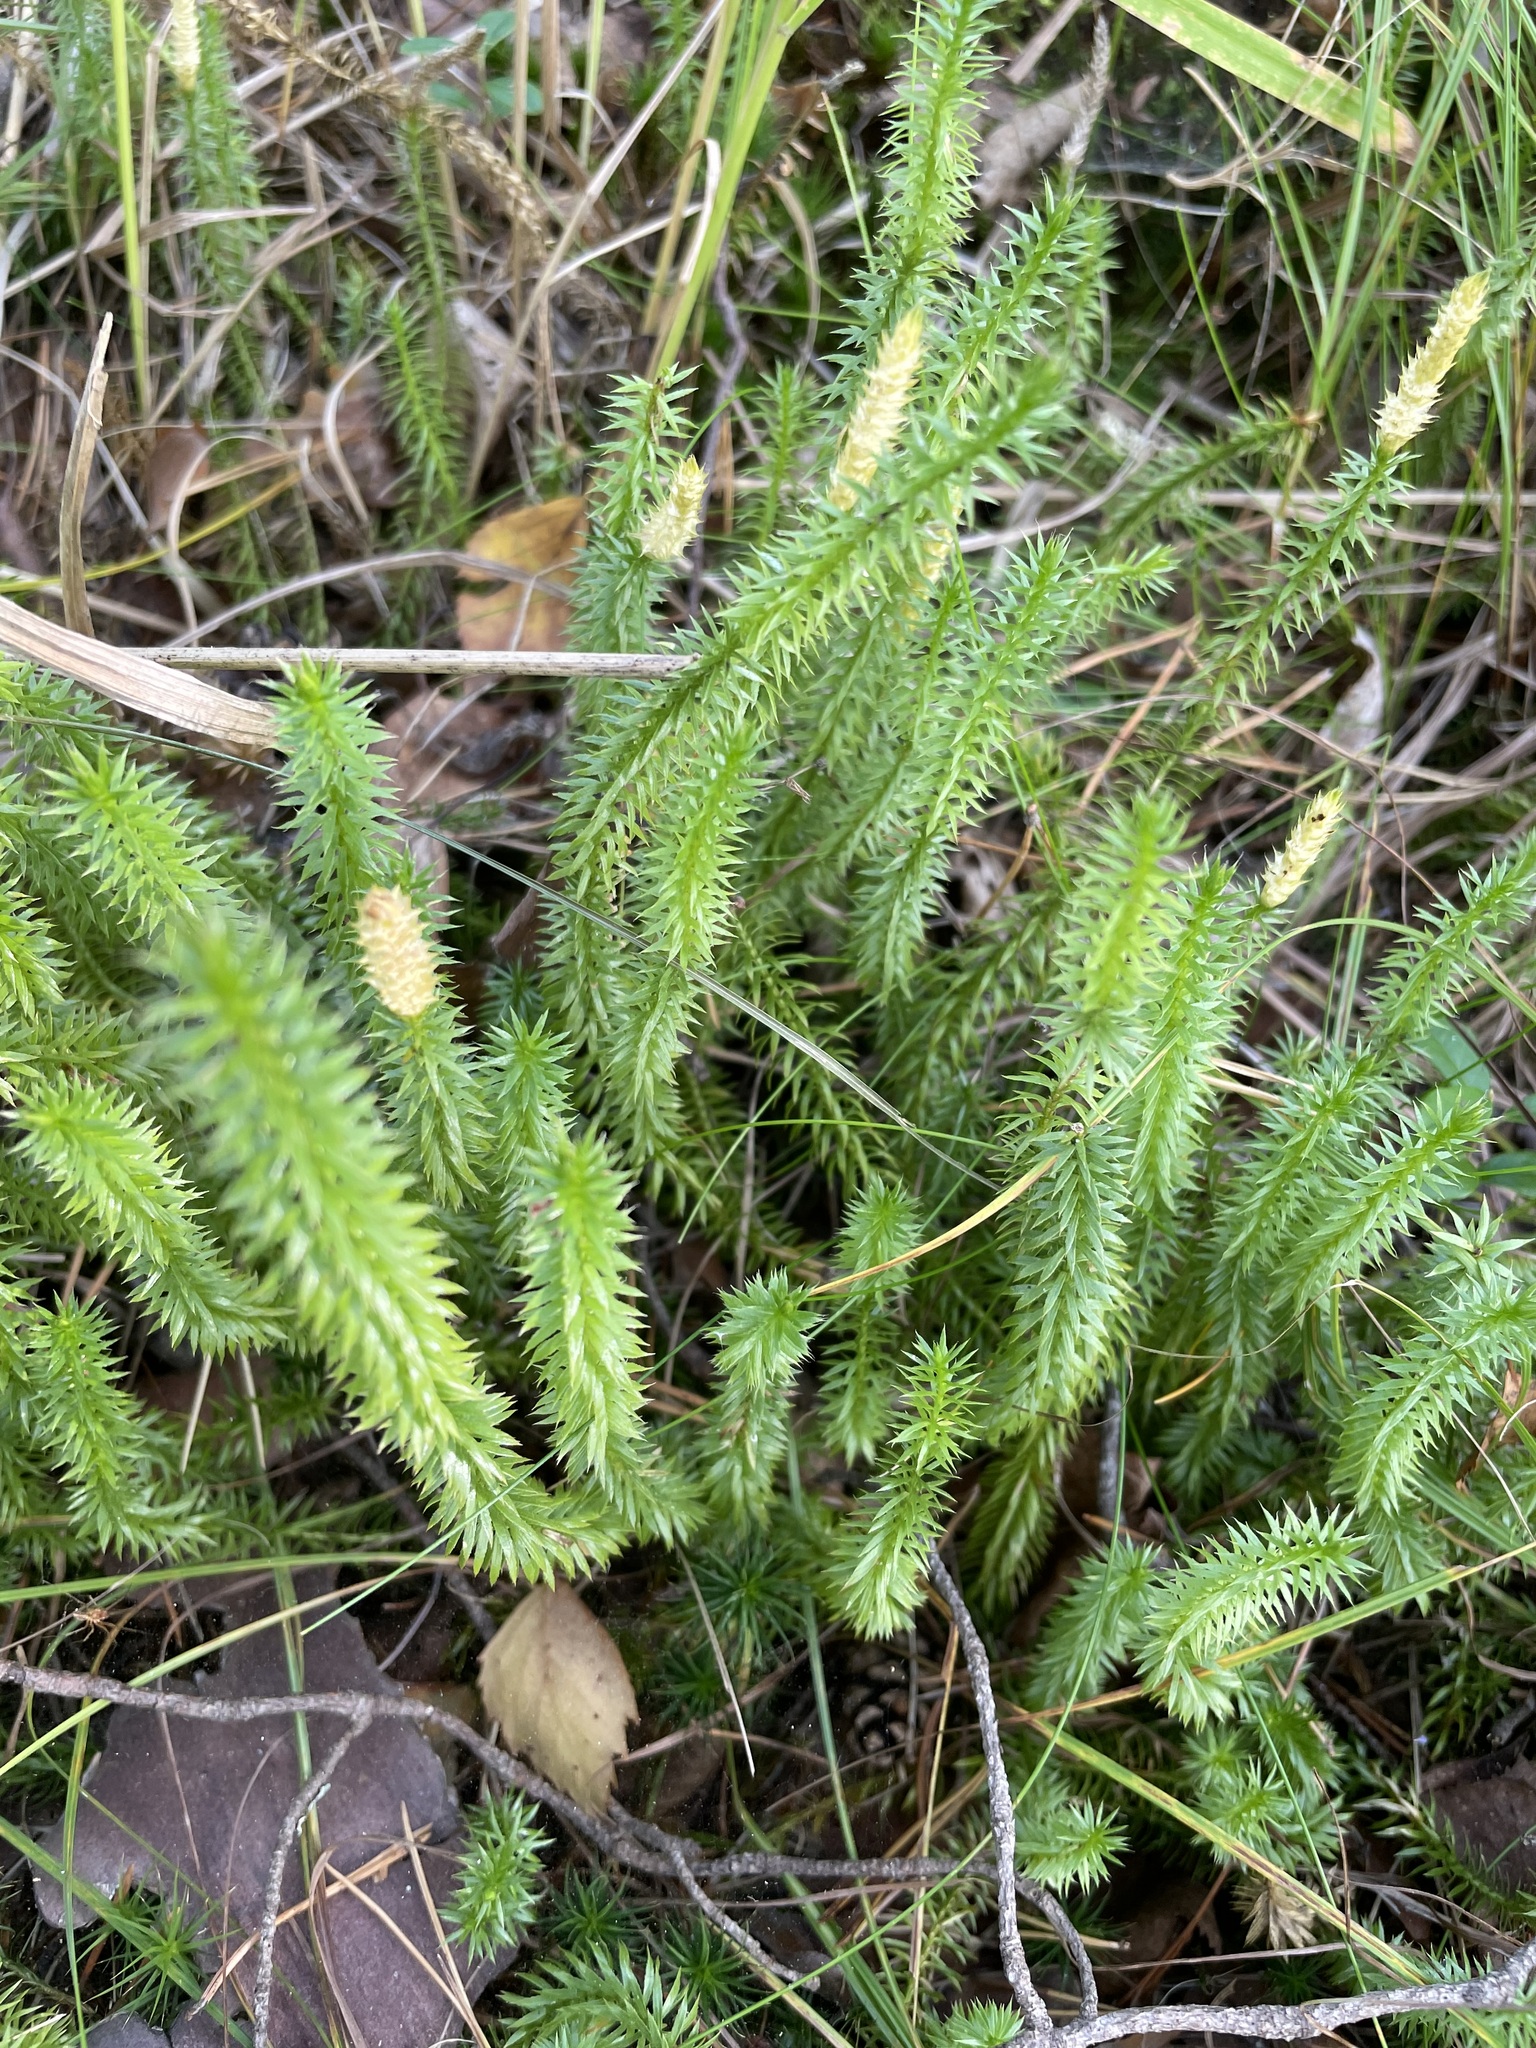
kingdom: Plantae
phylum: Tracheophyta
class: Lycopodiopsida
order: Lycopodiales
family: Lycopodiaceae
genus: Spinulum
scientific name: Spinulum annotinum
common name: Interrupted club-moss
